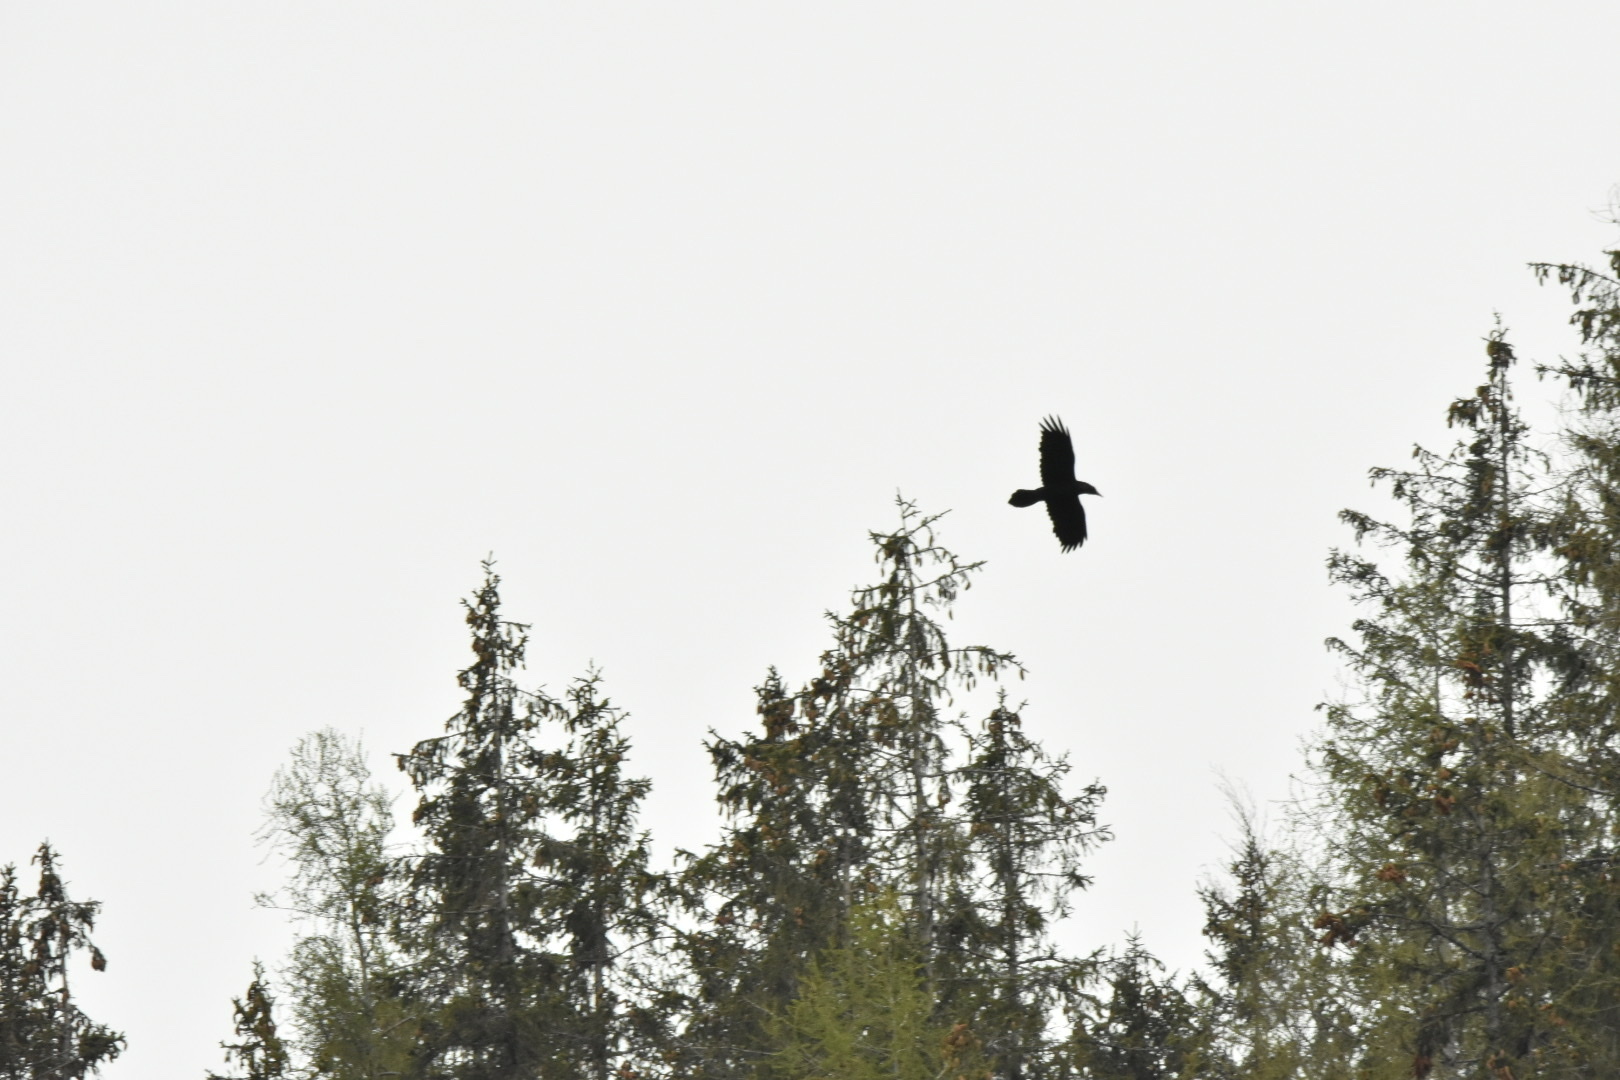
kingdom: Animalia
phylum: Chordata
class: Aves
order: Passeriformes
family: Corvidae
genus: Corvus
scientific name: Corvus corax
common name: Common raven
